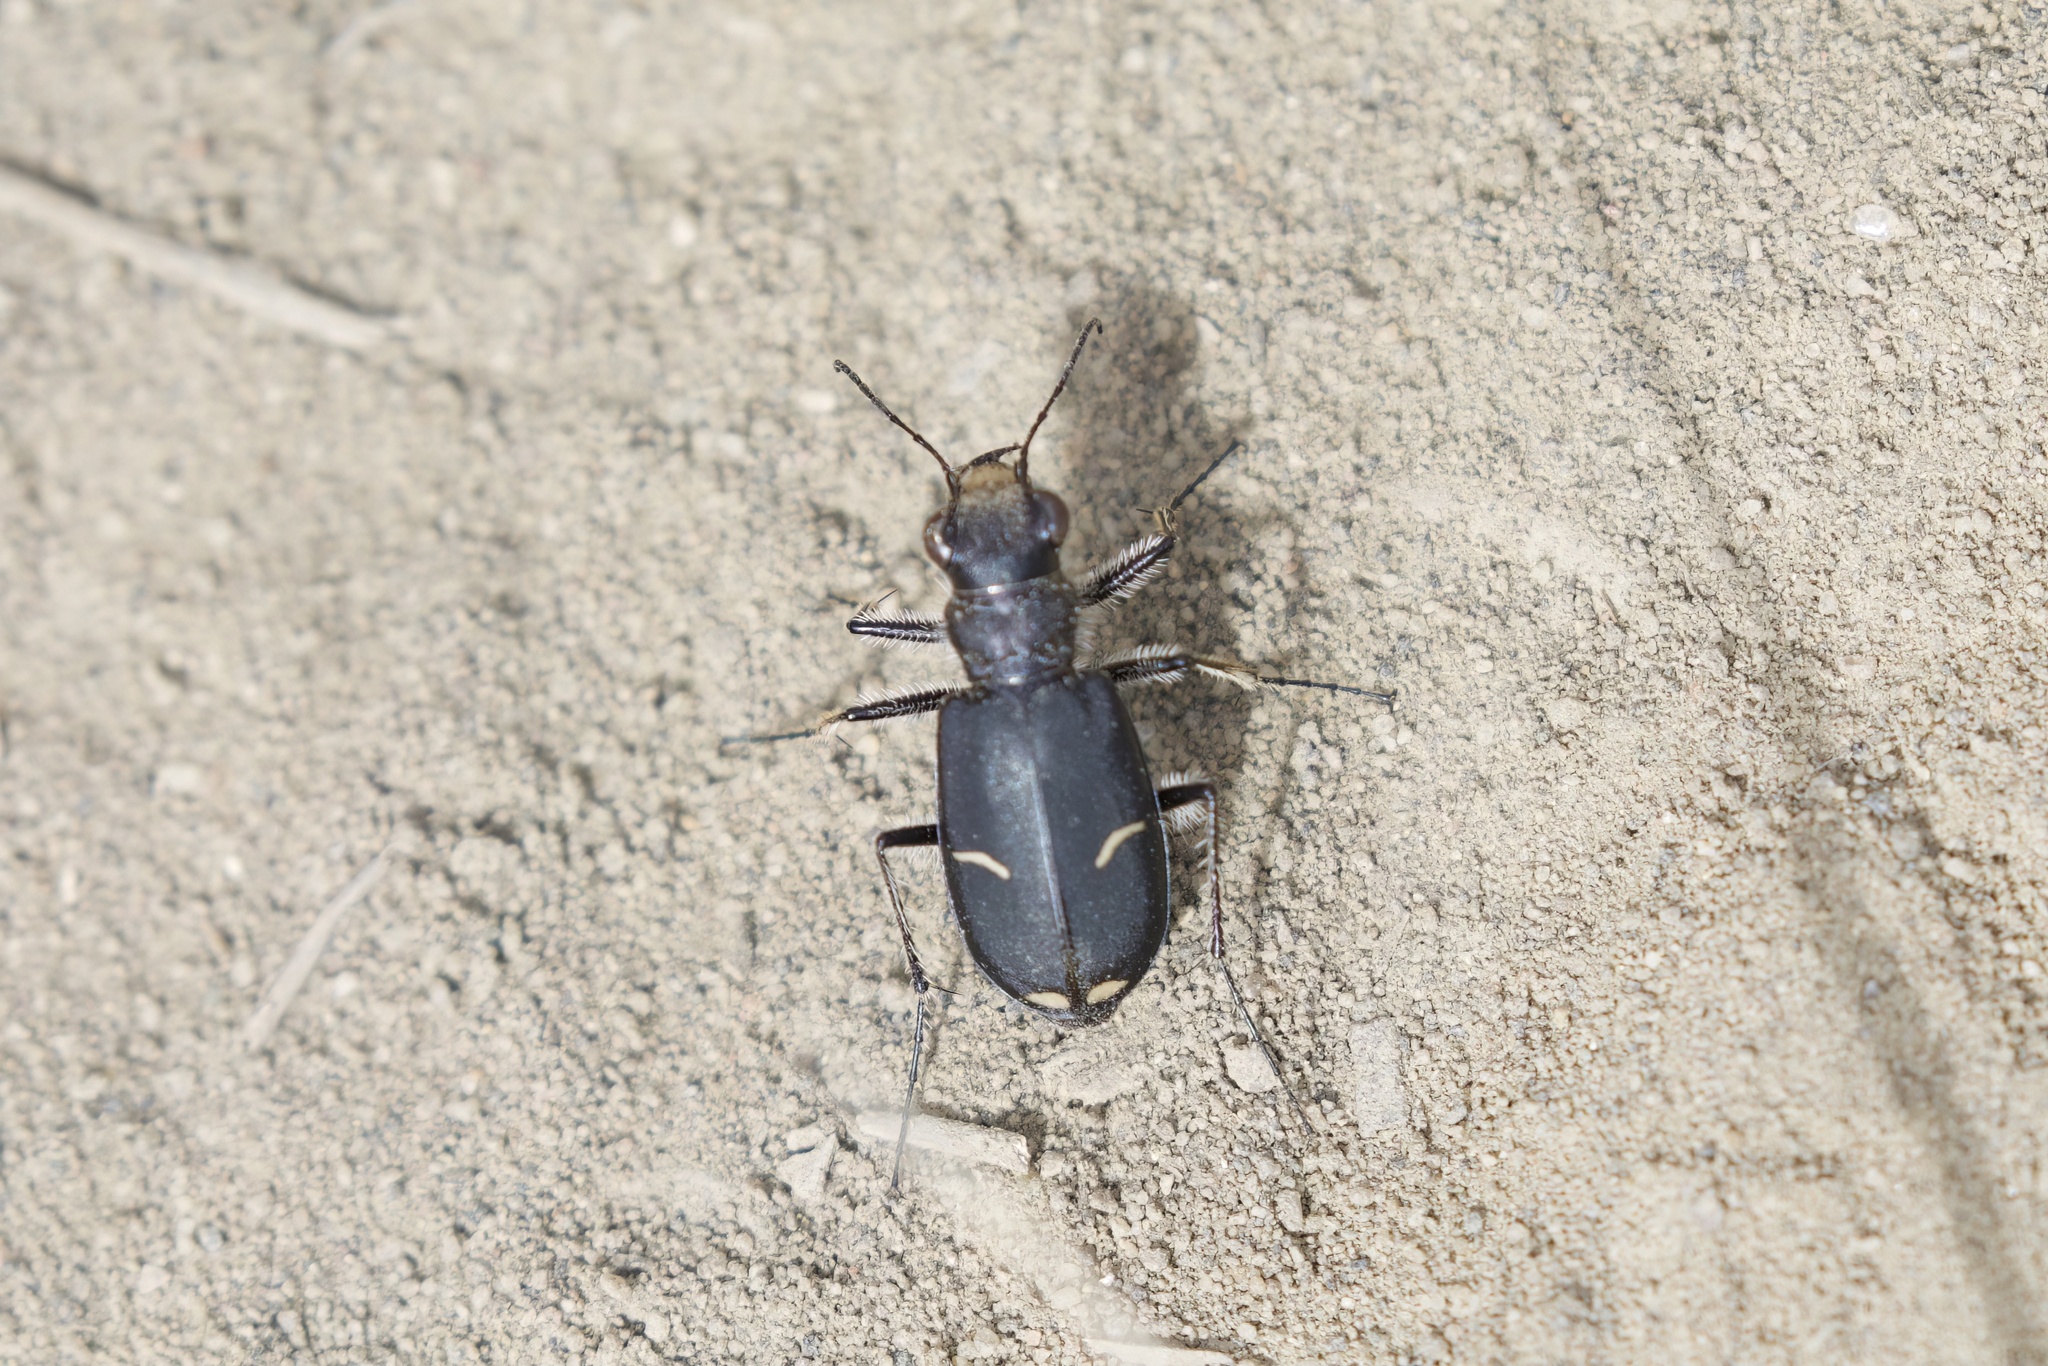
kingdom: Animalia
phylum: Arthropoda
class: Insecta
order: Coleoptera
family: Carabidae
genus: Cicindela
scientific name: Cicindela purpurea
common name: Cow path tiger beetle
